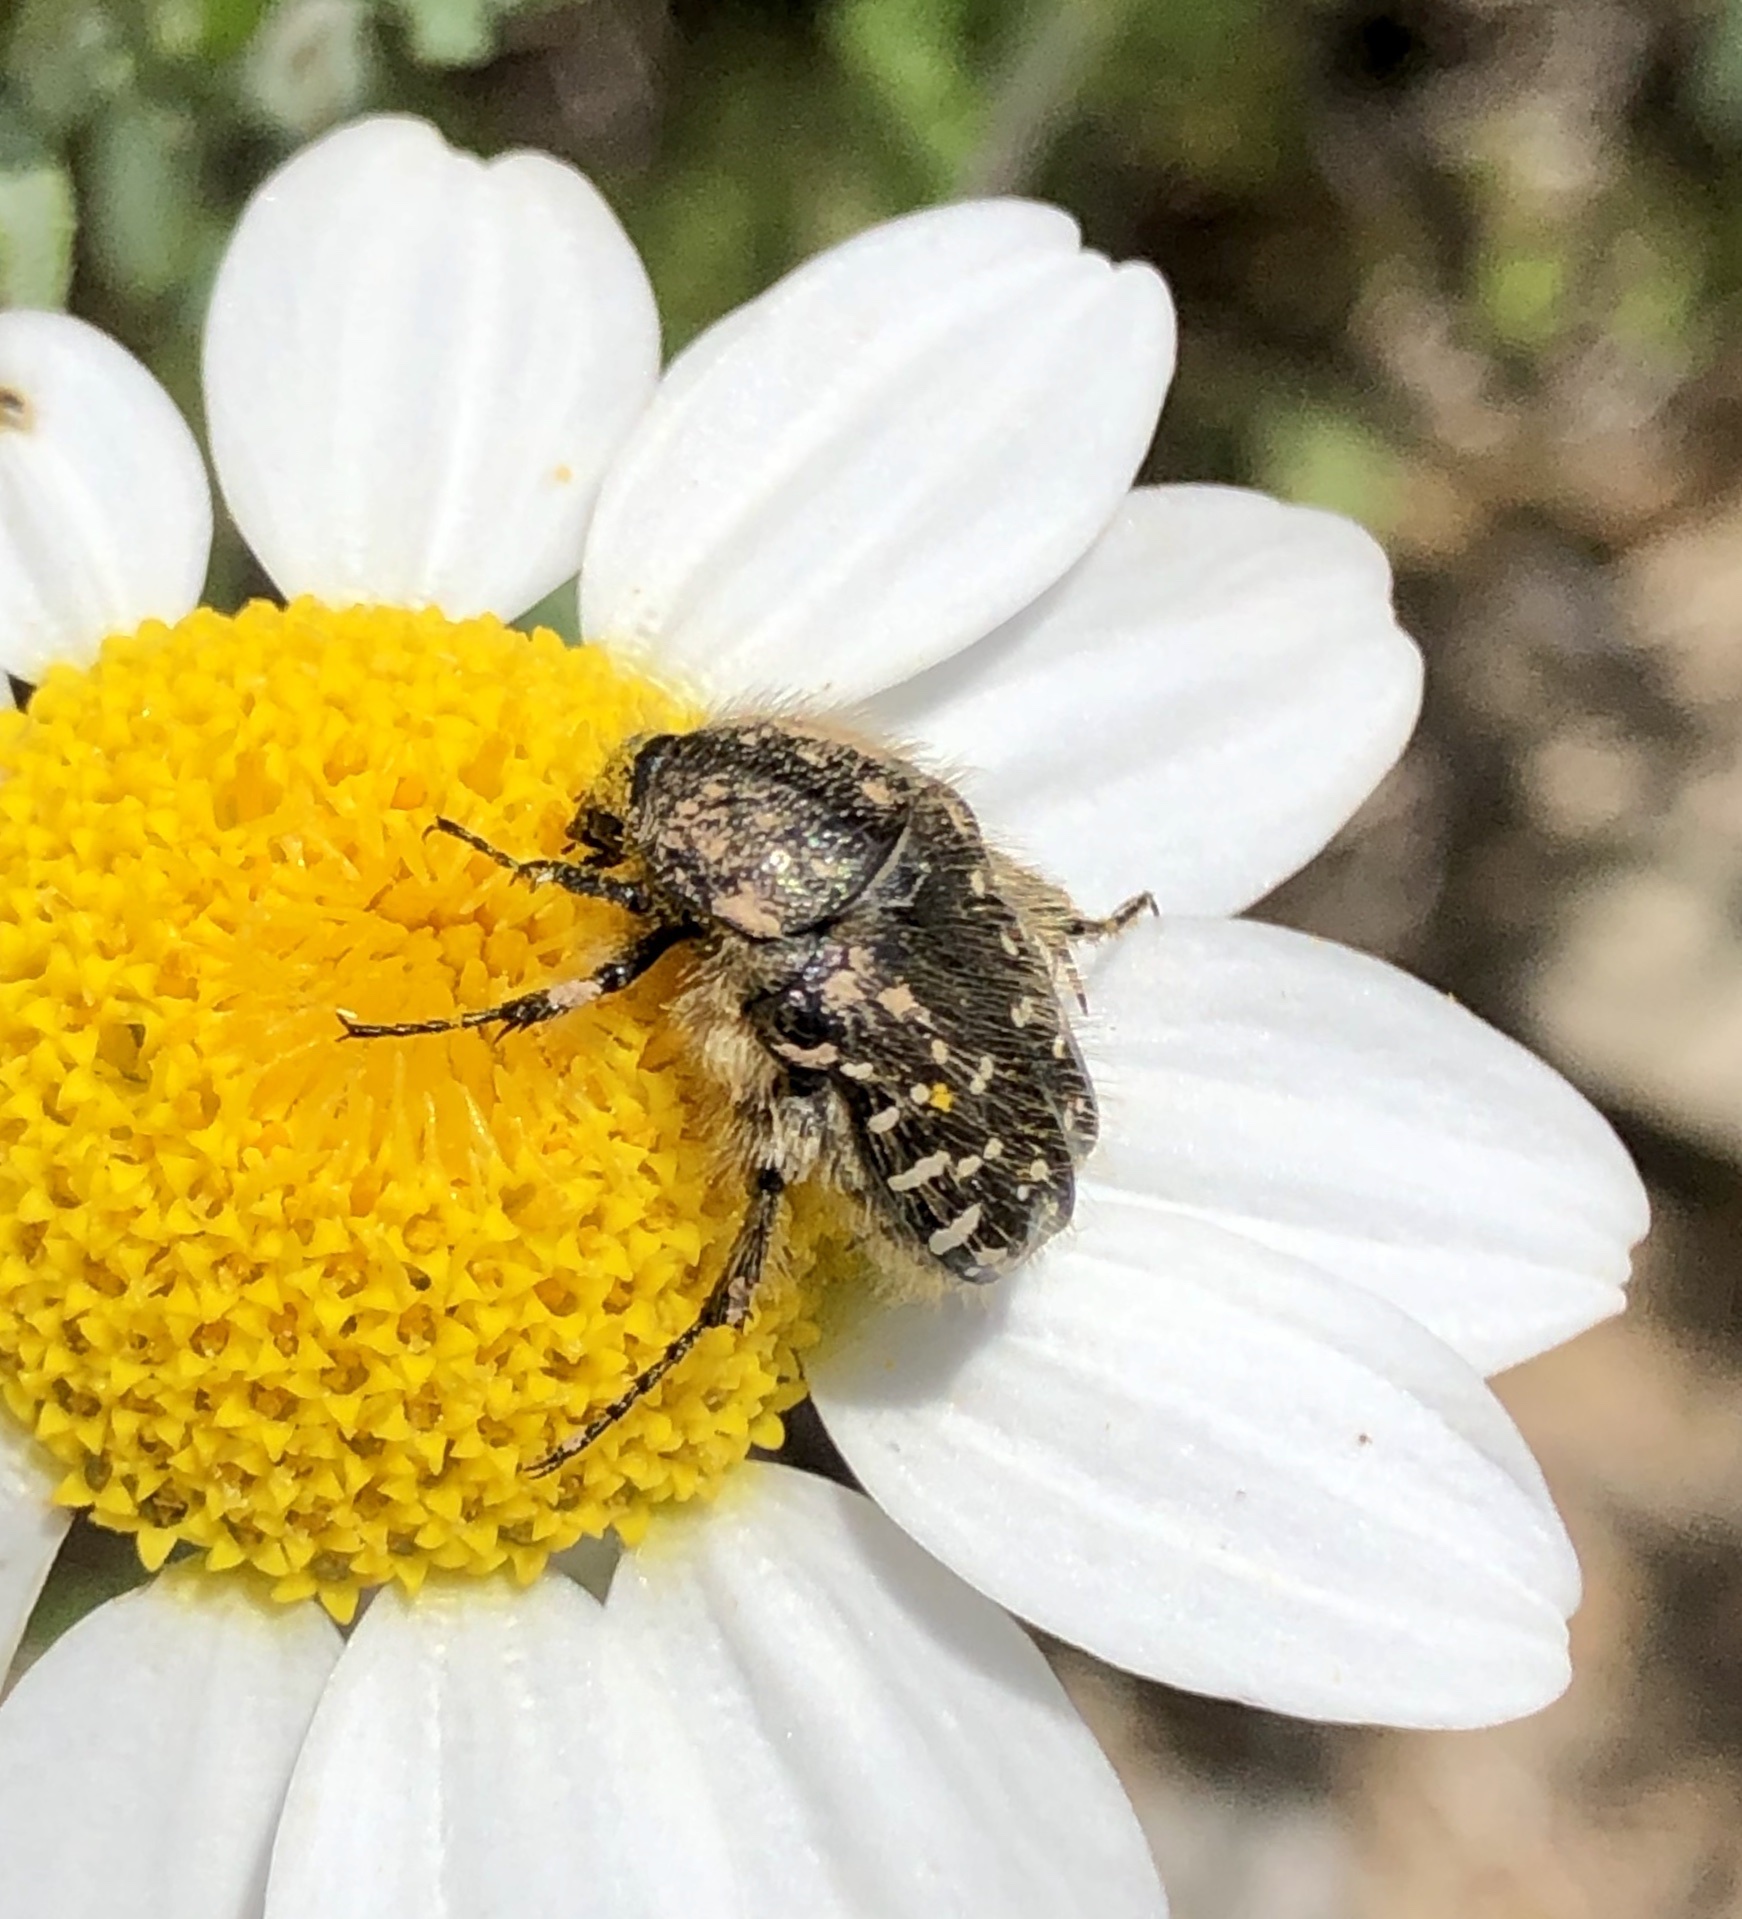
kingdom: Animalia
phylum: Arthropoda
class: Insecta
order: Coleoptera
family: Scarabaeidae
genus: Oxythyrea
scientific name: Oxythyrea funesta
